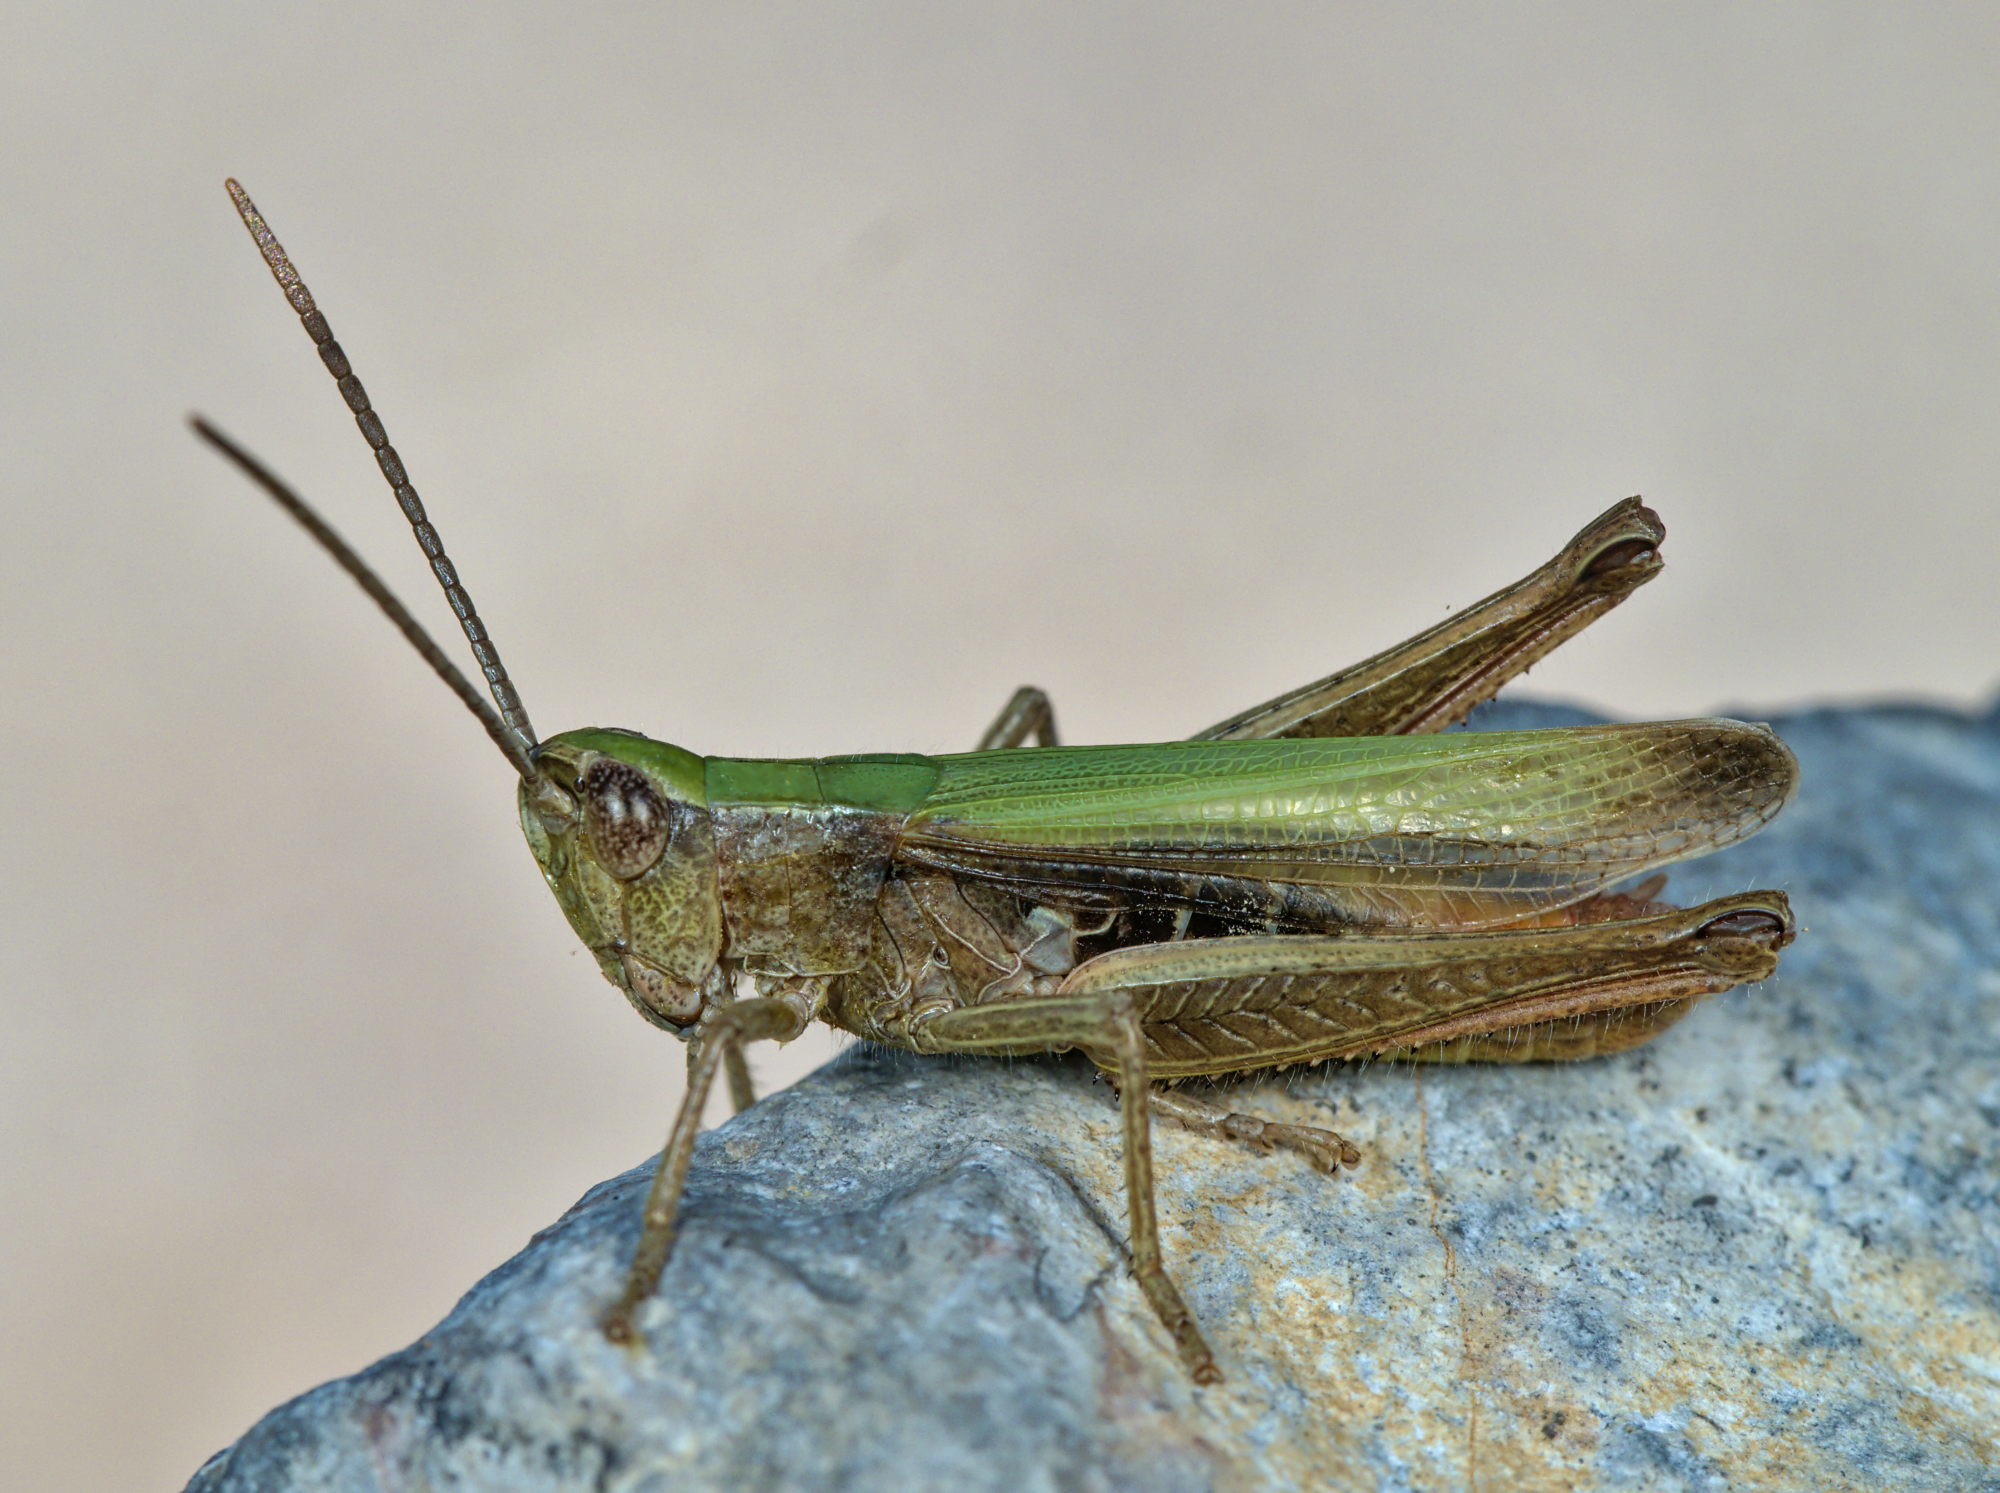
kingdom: Animalia
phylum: Arthropoda
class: Insecta
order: Orthoptera
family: Acrididae
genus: Chorthippus
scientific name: Chorthippus dorsatus
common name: Steppe grasshopper
